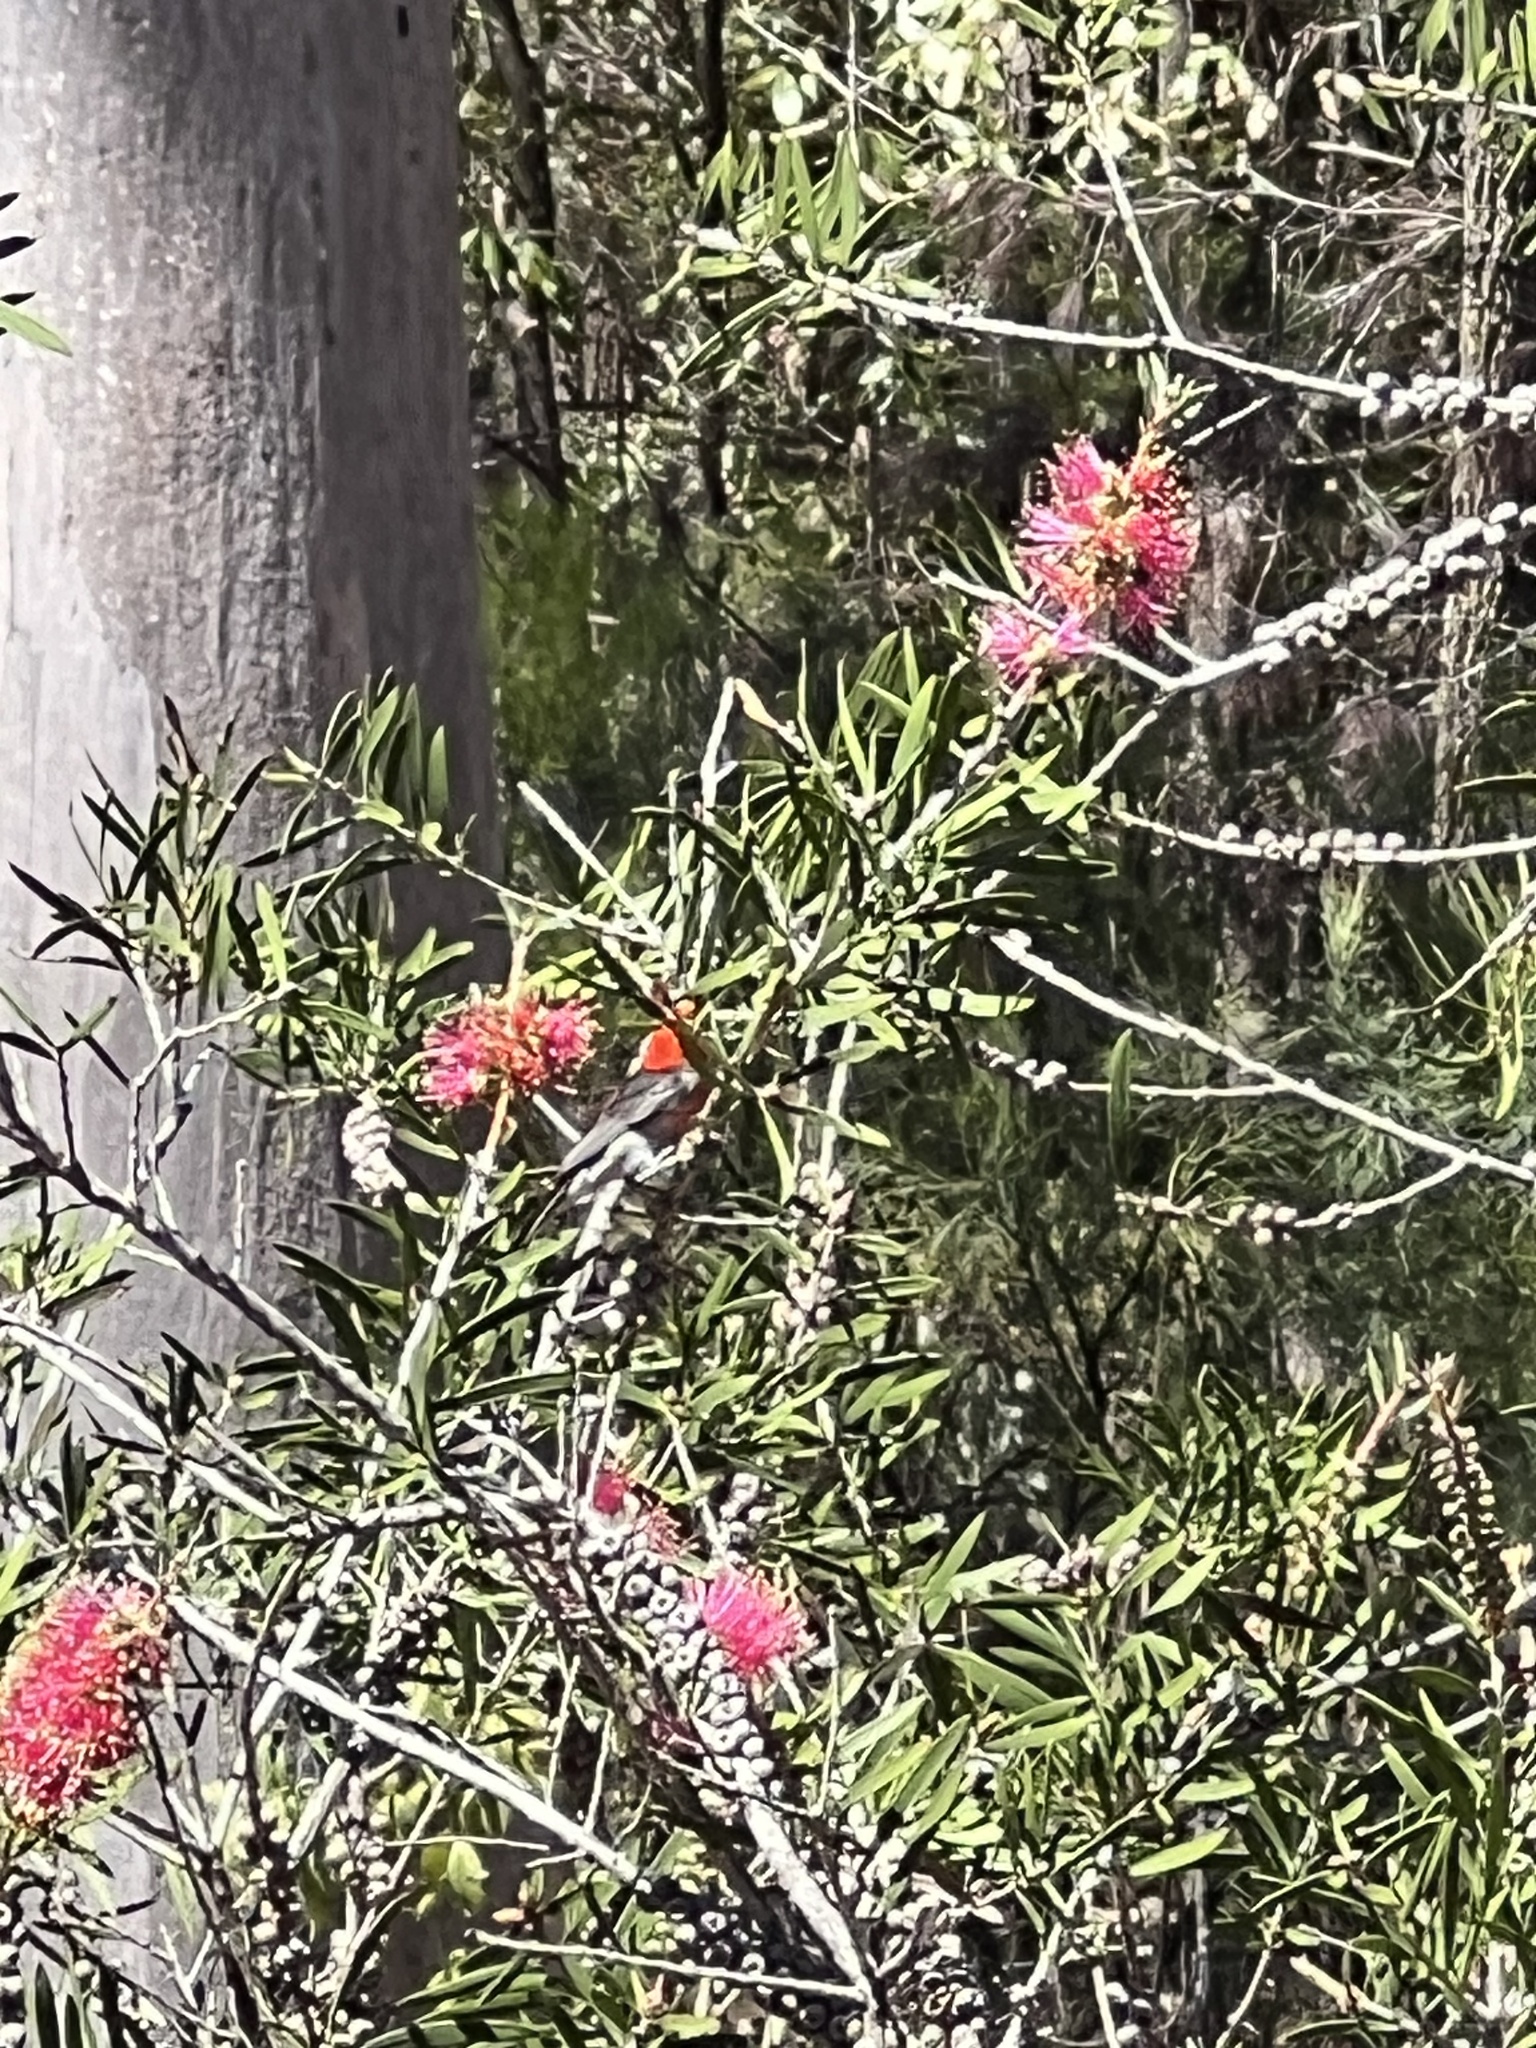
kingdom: Animalia
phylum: Chordata
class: Aves
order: Passeriformes
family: Meliphagidae
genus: Myzomela
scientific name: Myzomela sanguinolenta
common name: Scarlet myzomela
